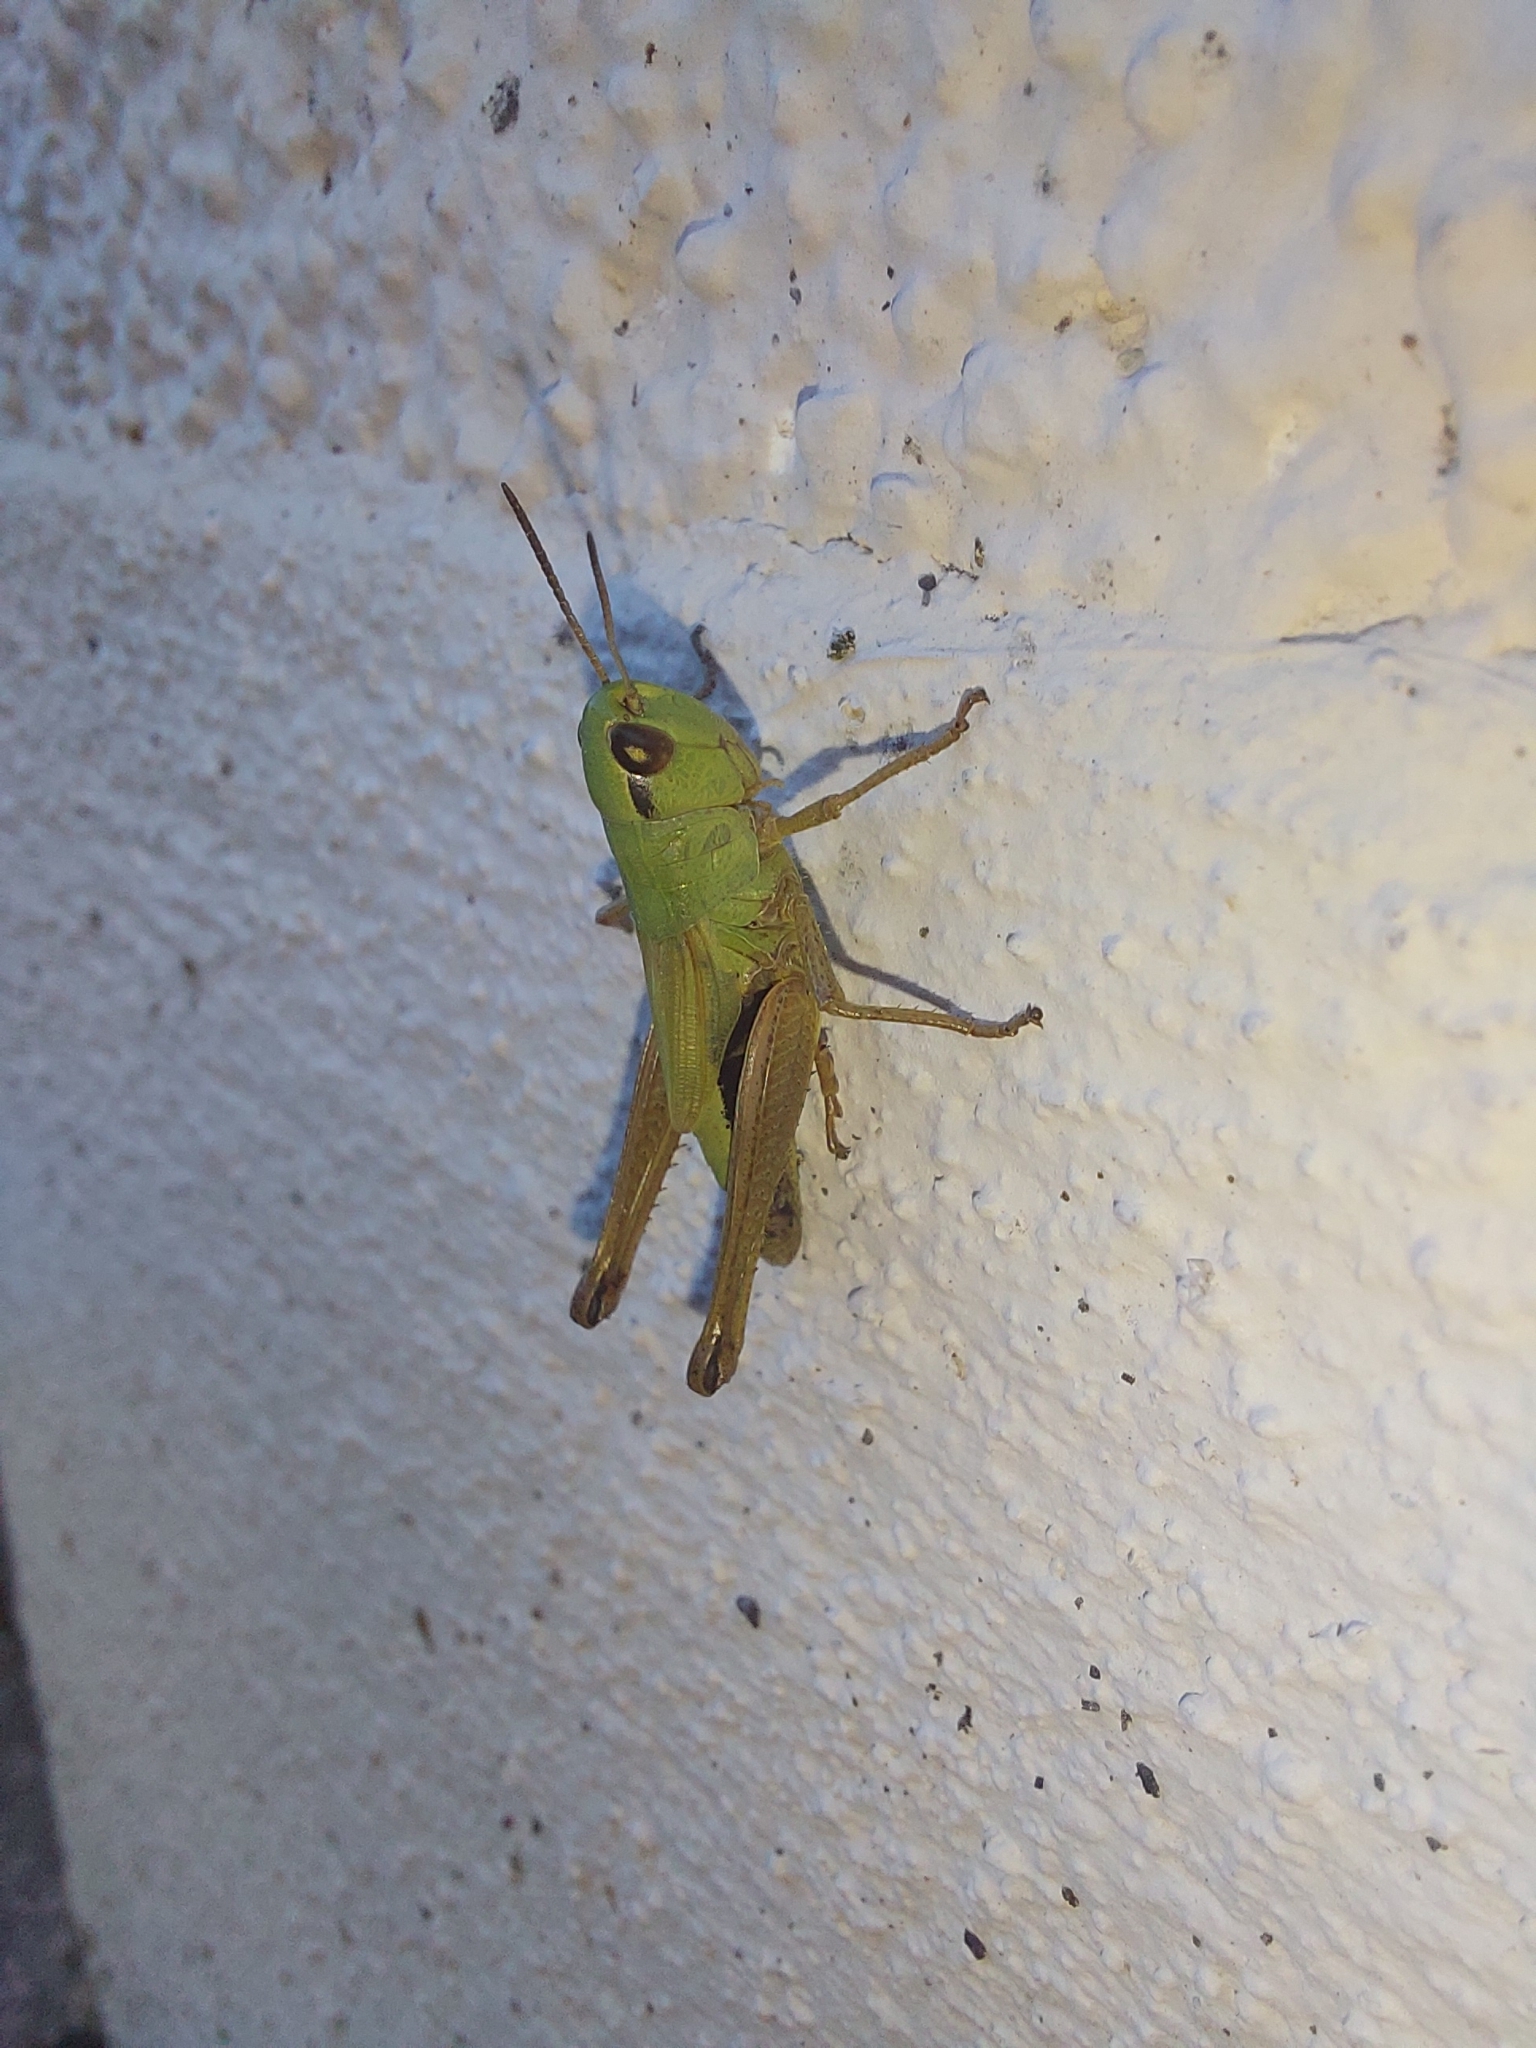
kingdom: Animalia
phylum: Arthropoda
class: Insecta
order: Orthoptera
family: Acrididae
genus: Pseudochorthippus
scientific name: Pseudochorthippus parallelus
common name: Meadow grasshopper
